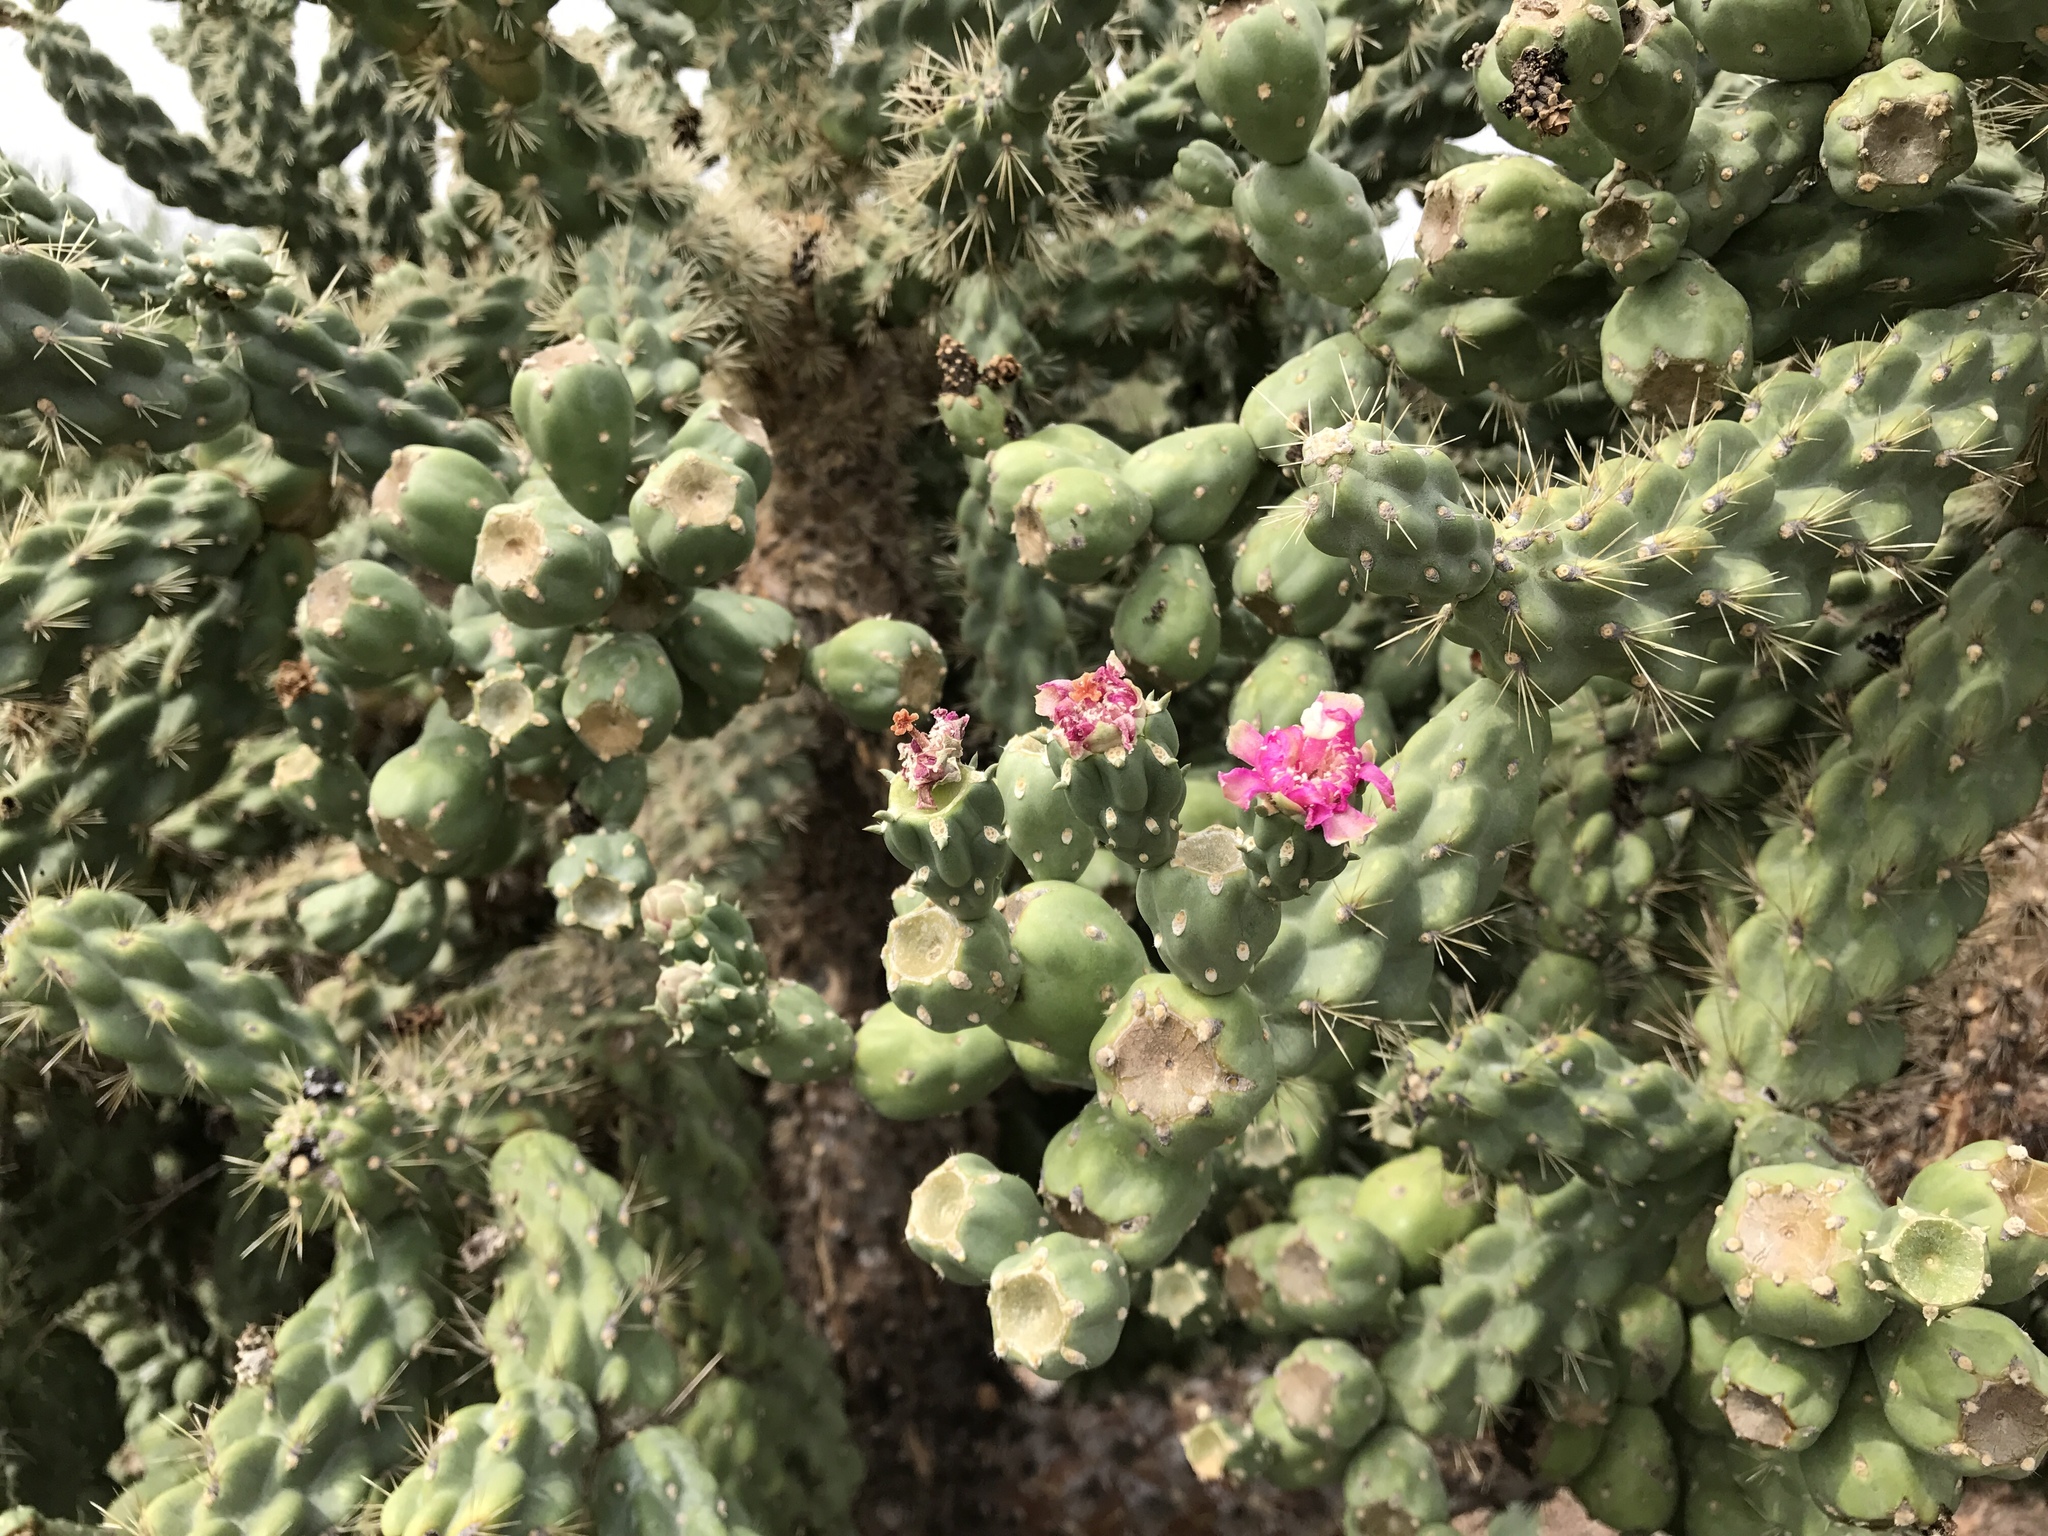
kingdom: Plantae
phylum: Tracheophyta
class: Magnoliopsida
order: Caryophyllales
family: Cactaceae
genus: Cylindropuntia
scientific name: Cylindropuntia fulgida
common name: Jumping cholla
